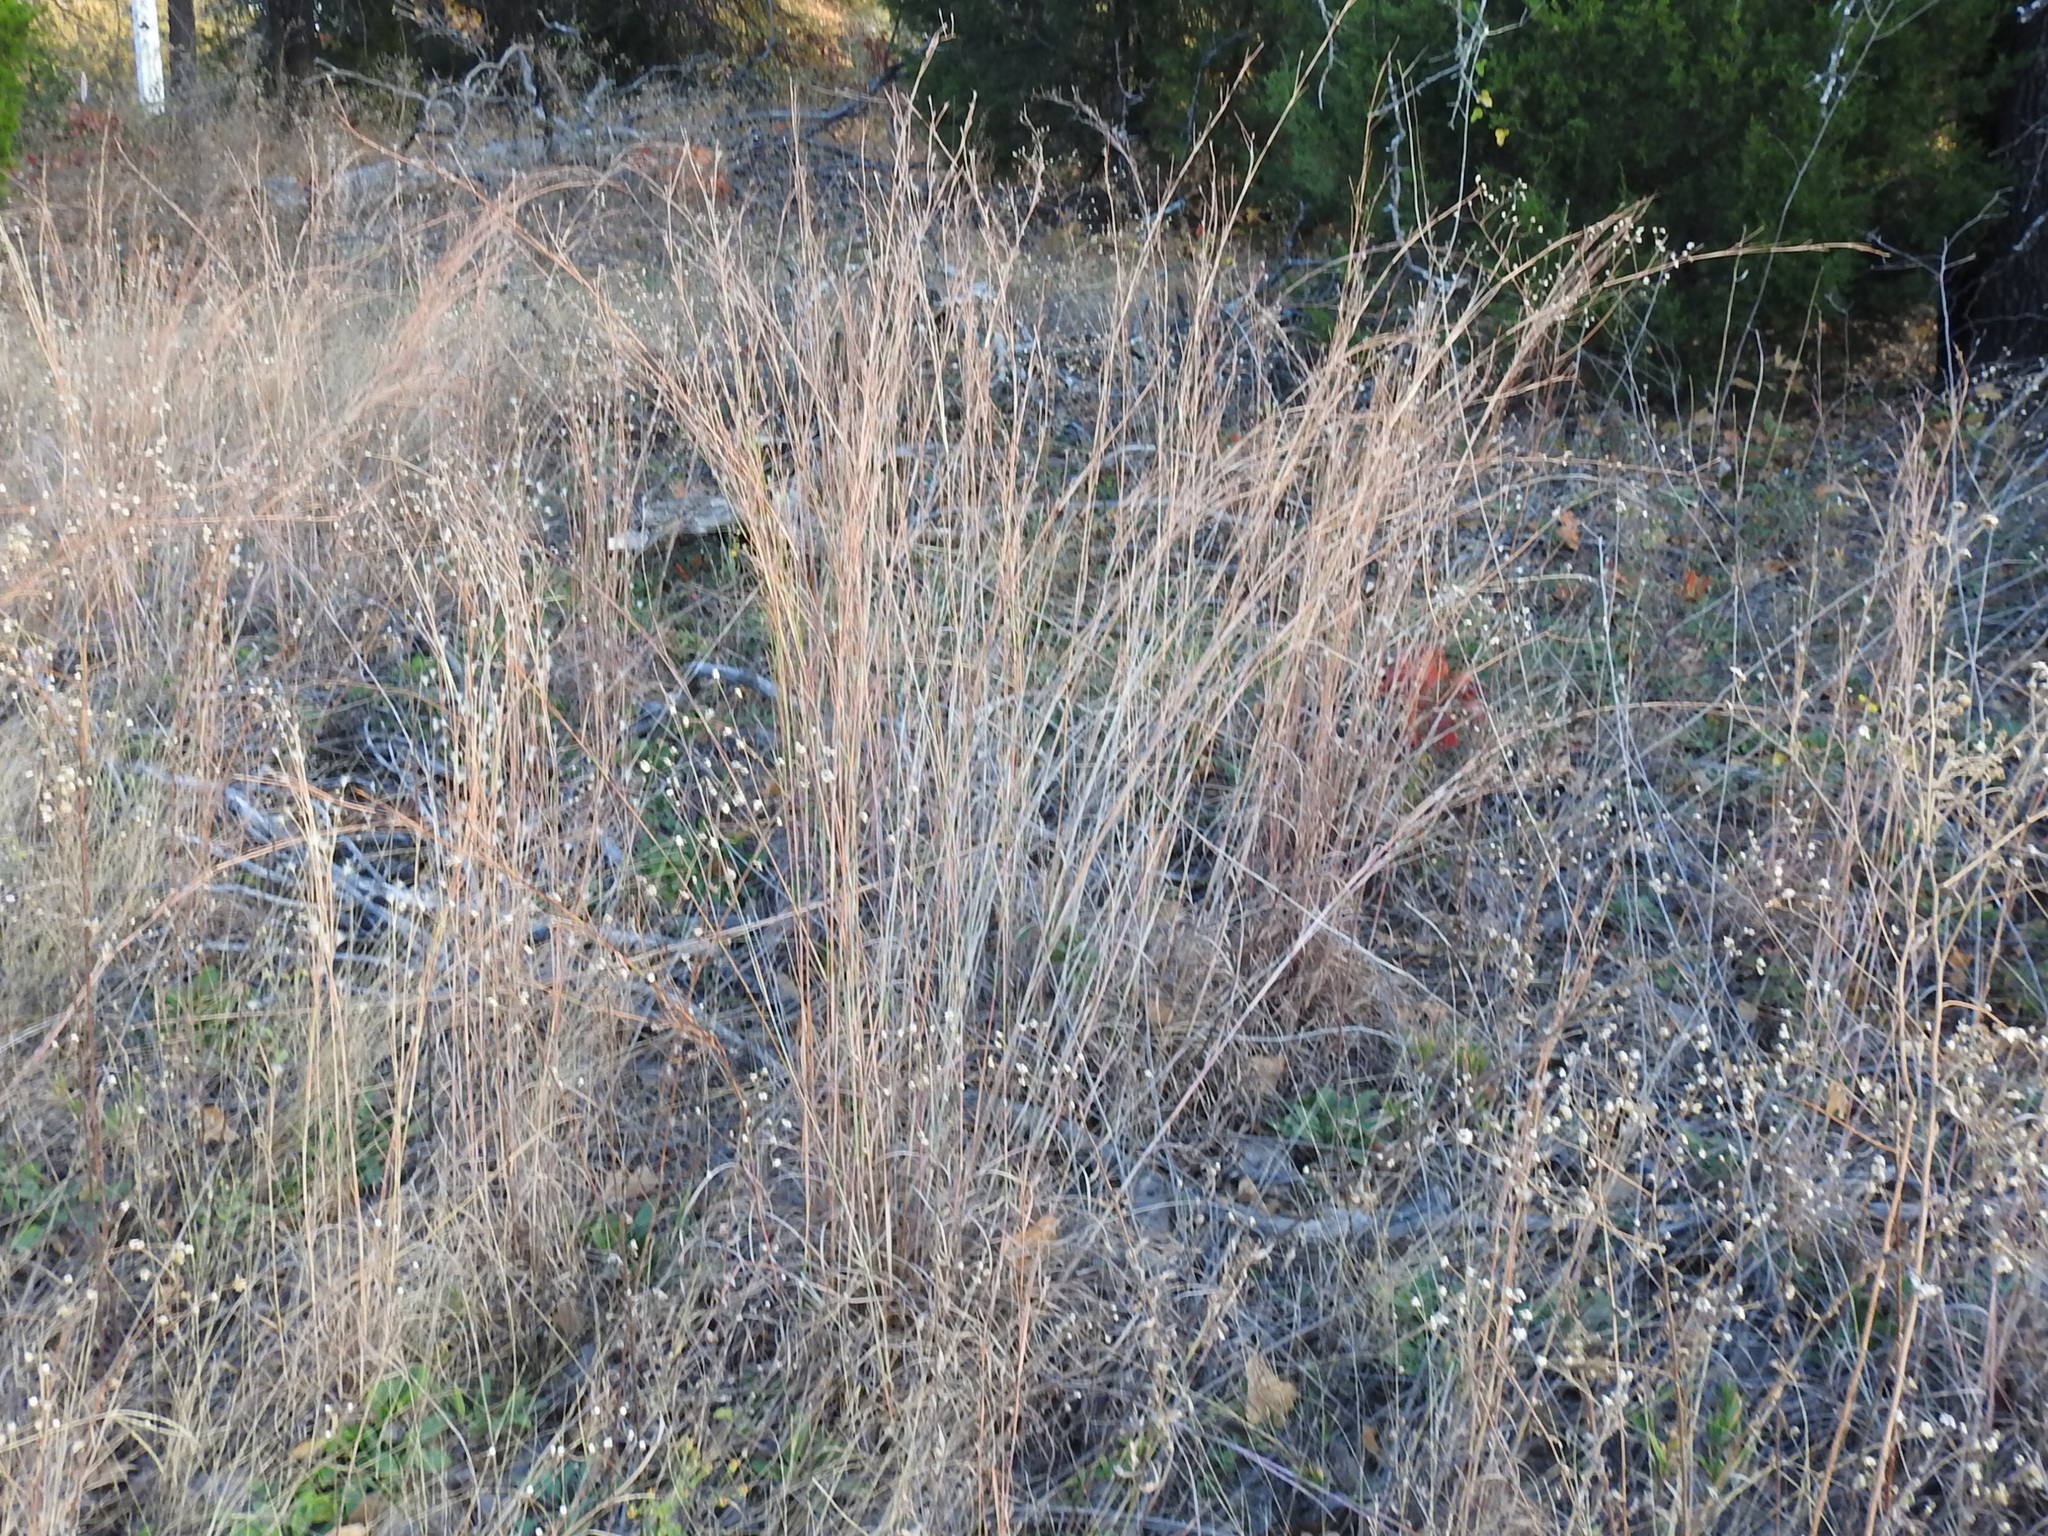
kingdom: Plantae
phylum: Tracheophyta
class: Liliopsida
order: Poales
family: Poaceae
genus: Schizachyrium
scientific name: Schizachyrium scoparium
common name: Little bluestem
